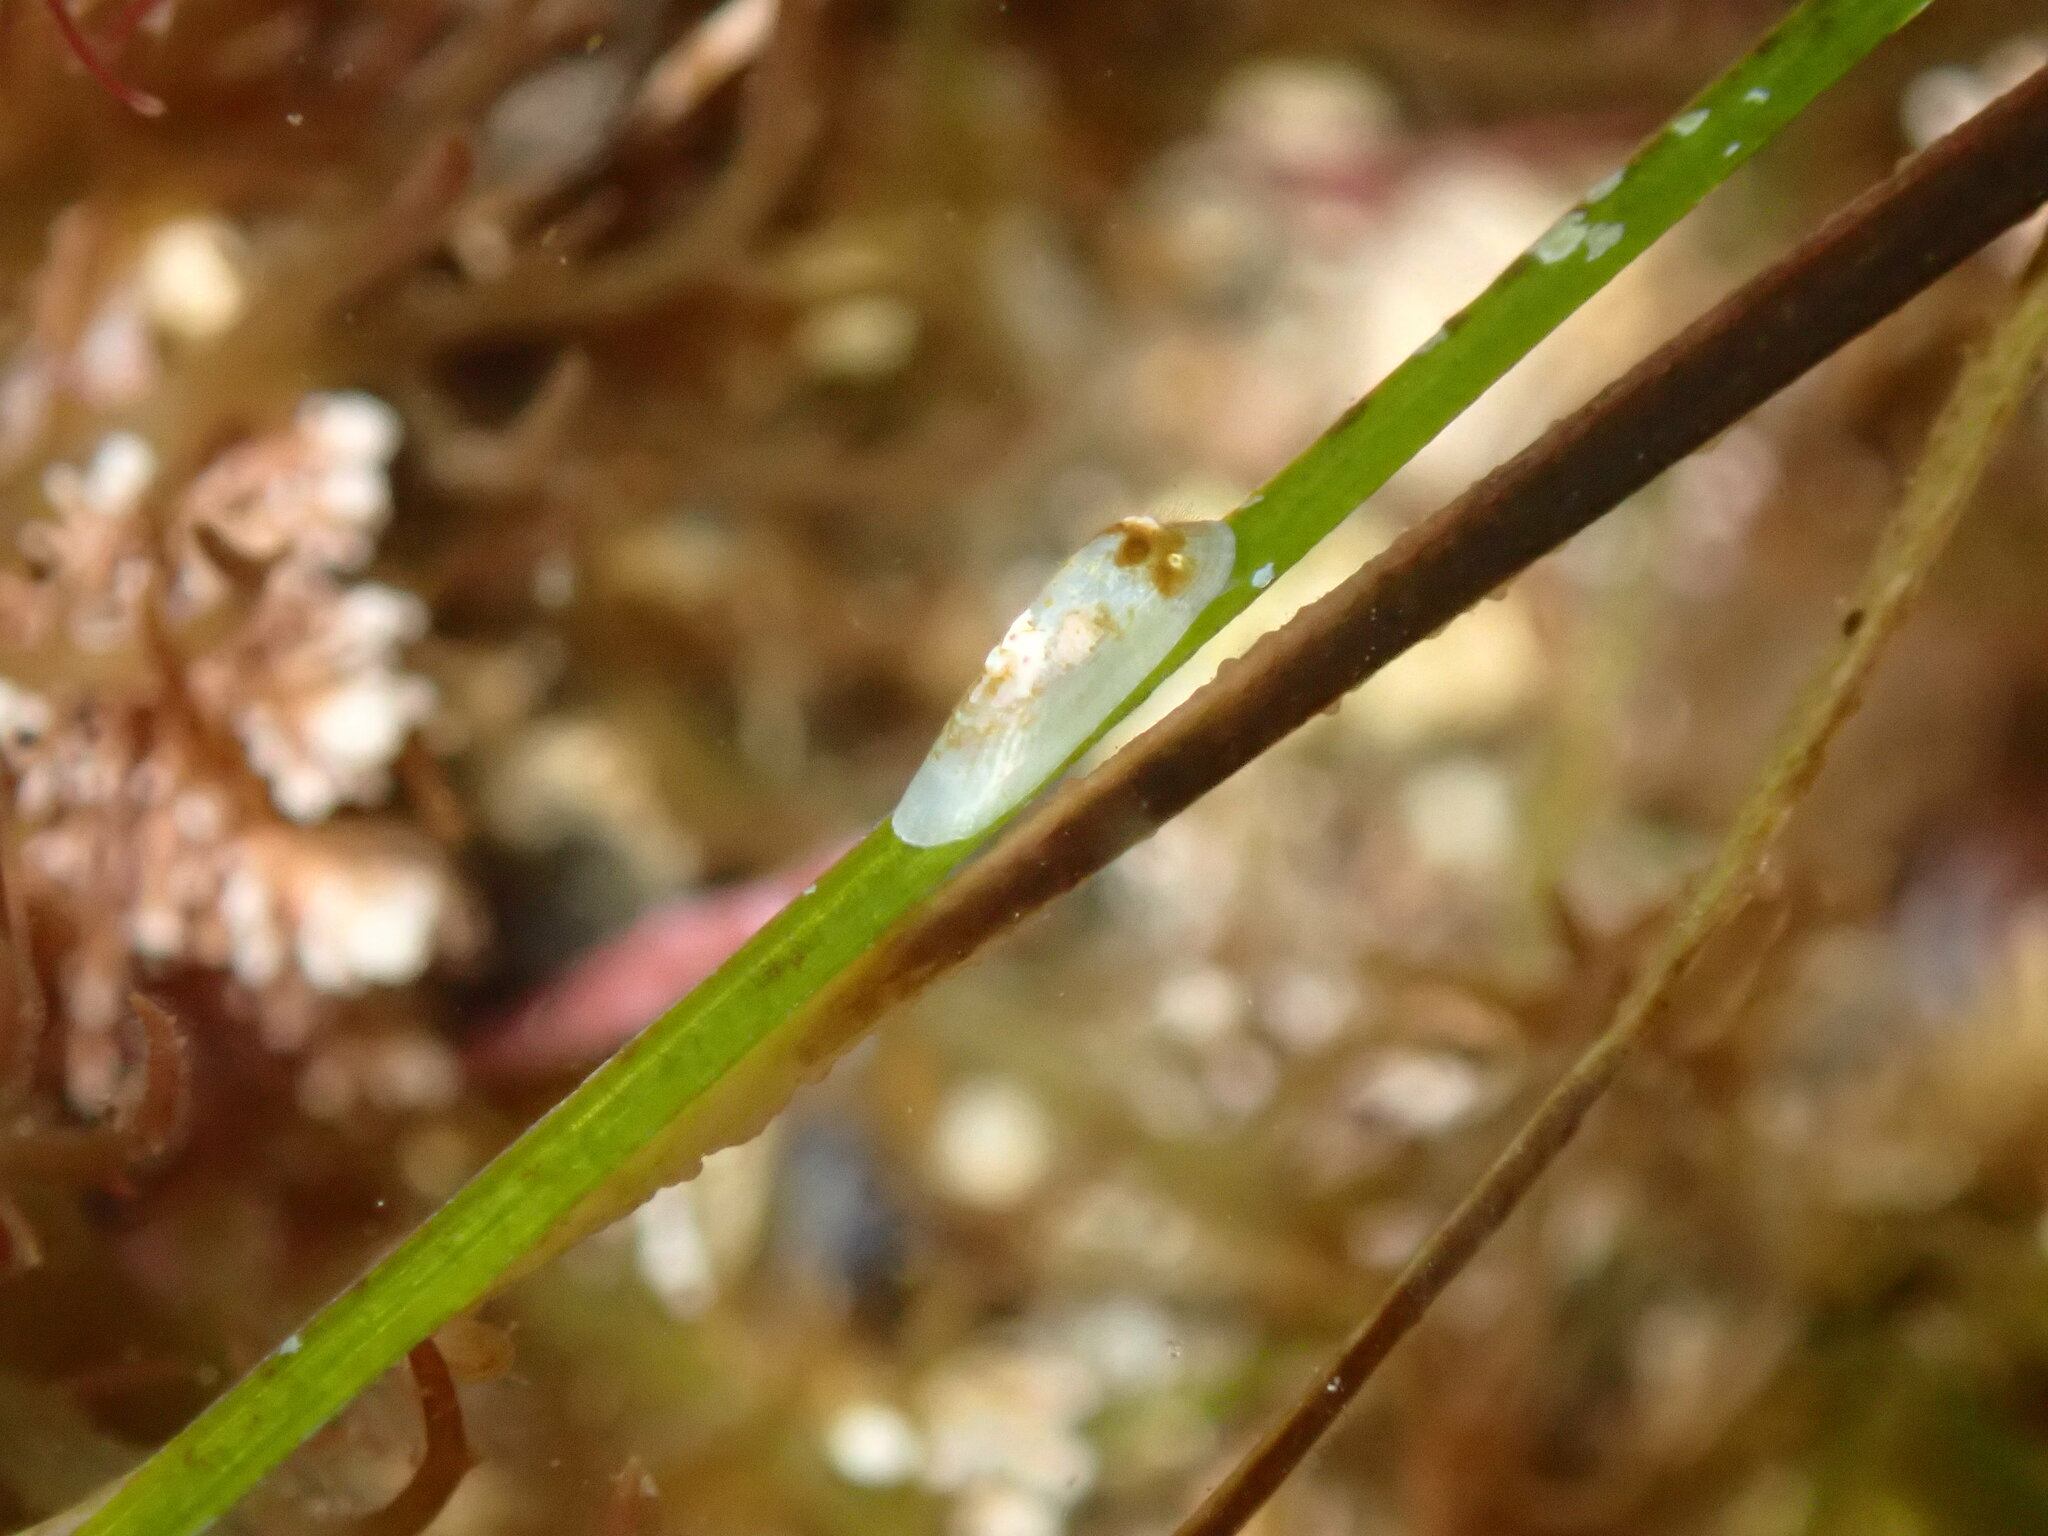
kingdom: Animalia
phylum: Mollusca
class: Gastropoda
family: Lottiidae
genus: Tectura
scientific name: Tectura paleacea
